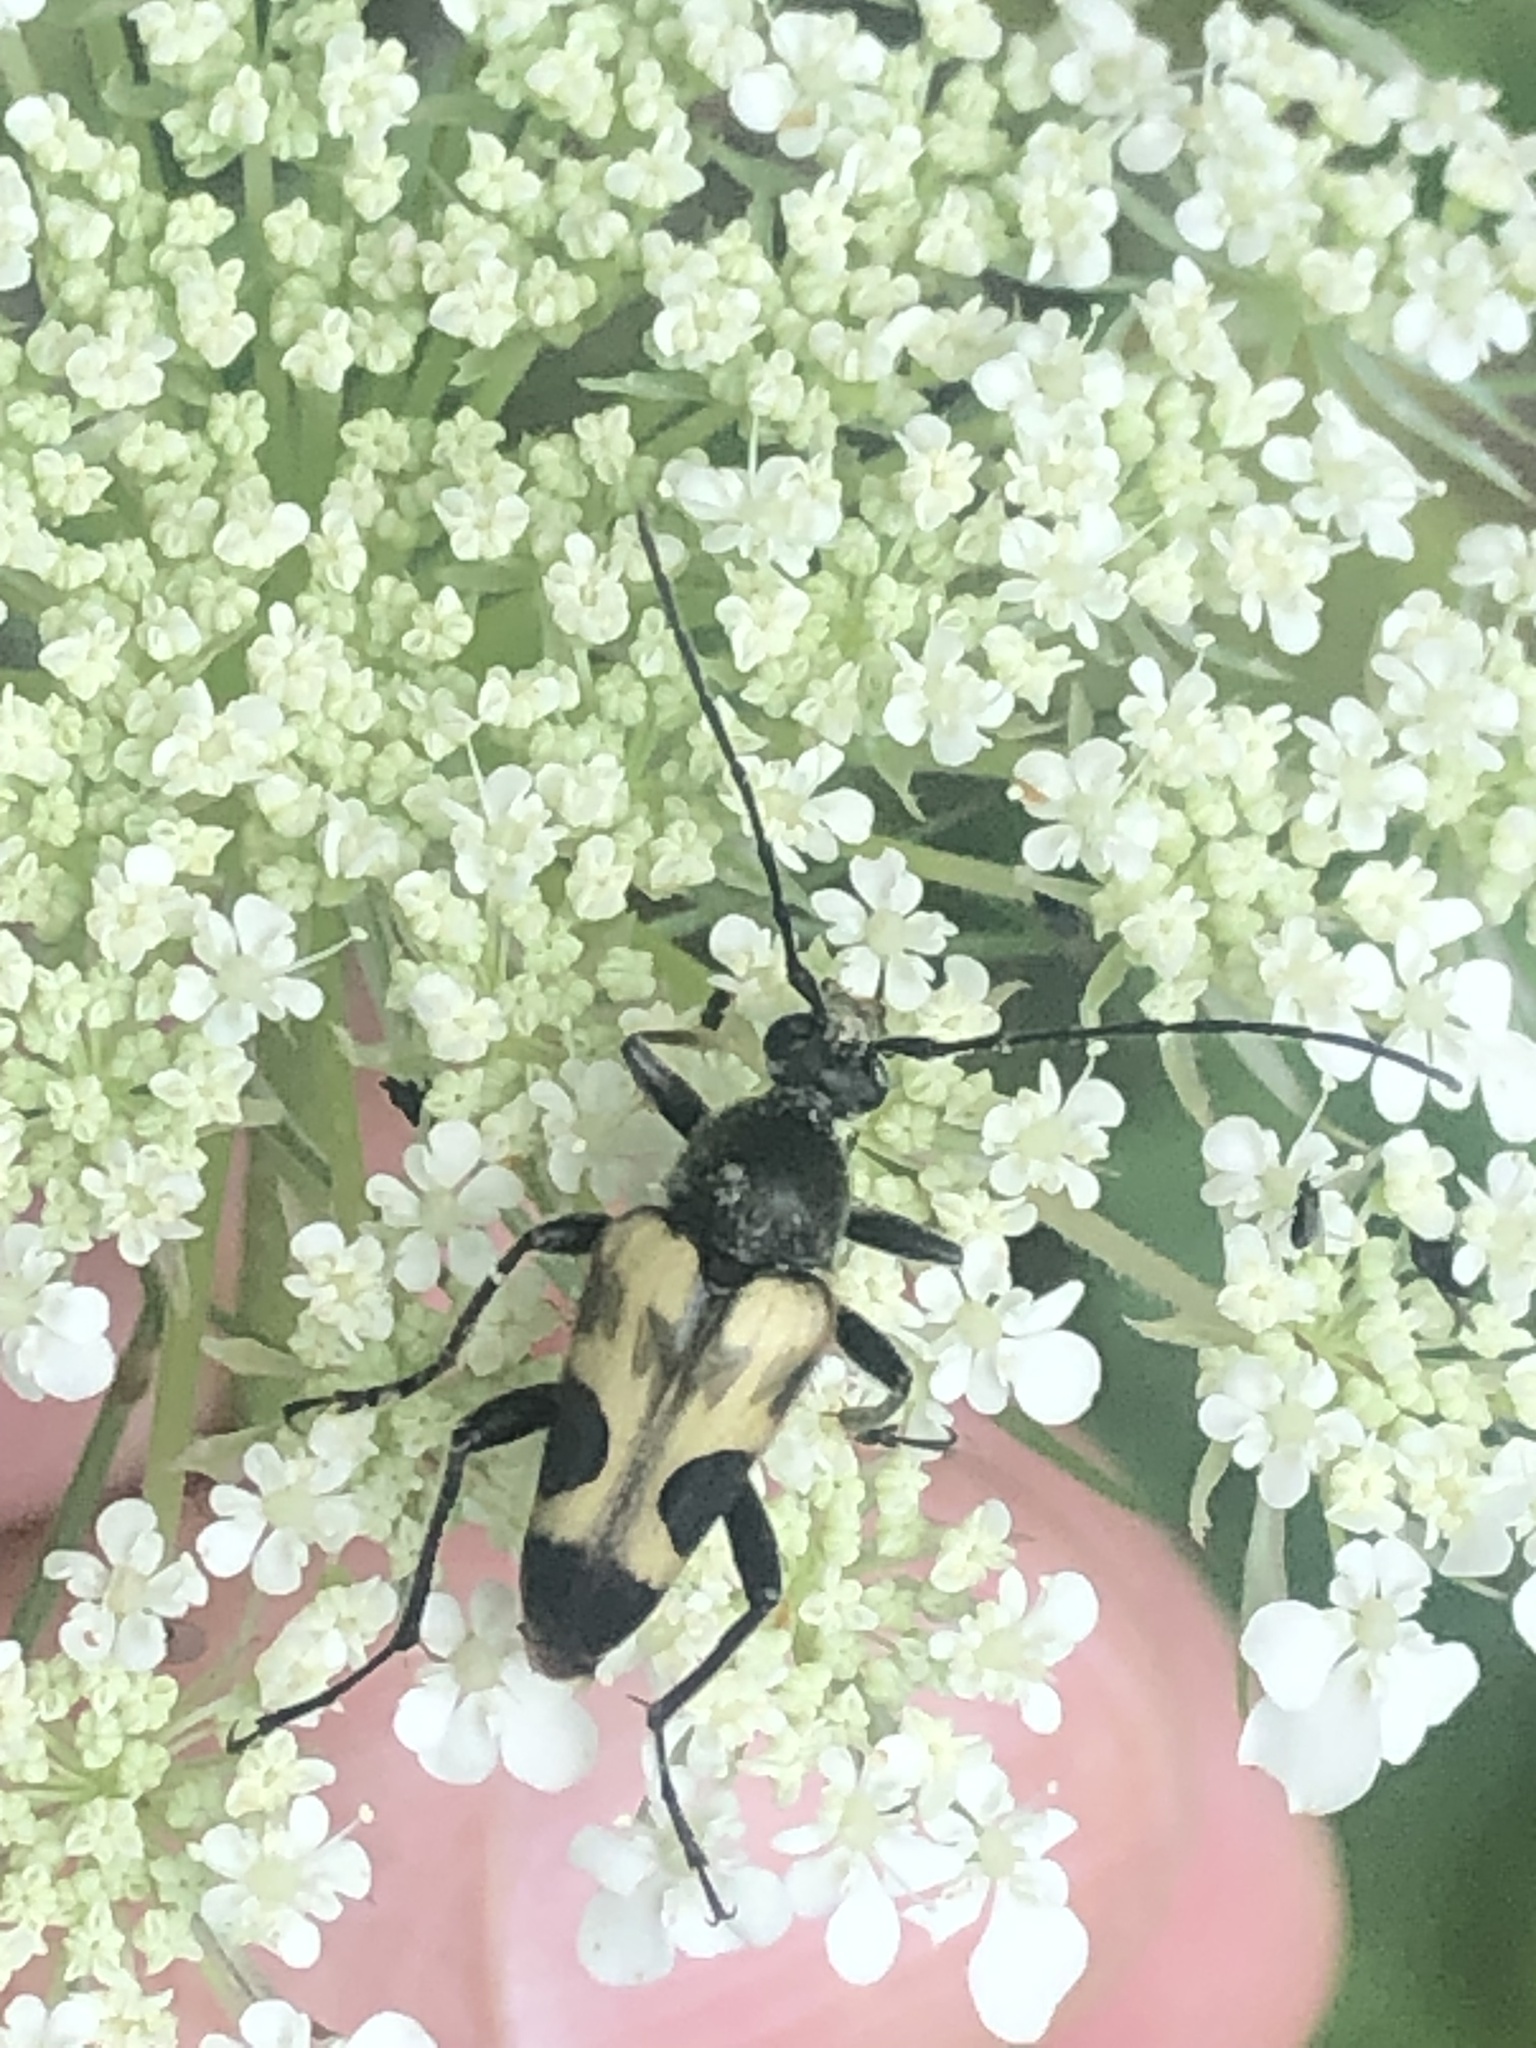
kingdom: Animalia
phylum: Arthropoda
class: Insecta
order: Coleoptera
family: Cerambycidae
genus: Judolia
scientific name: Judolia cordifera
